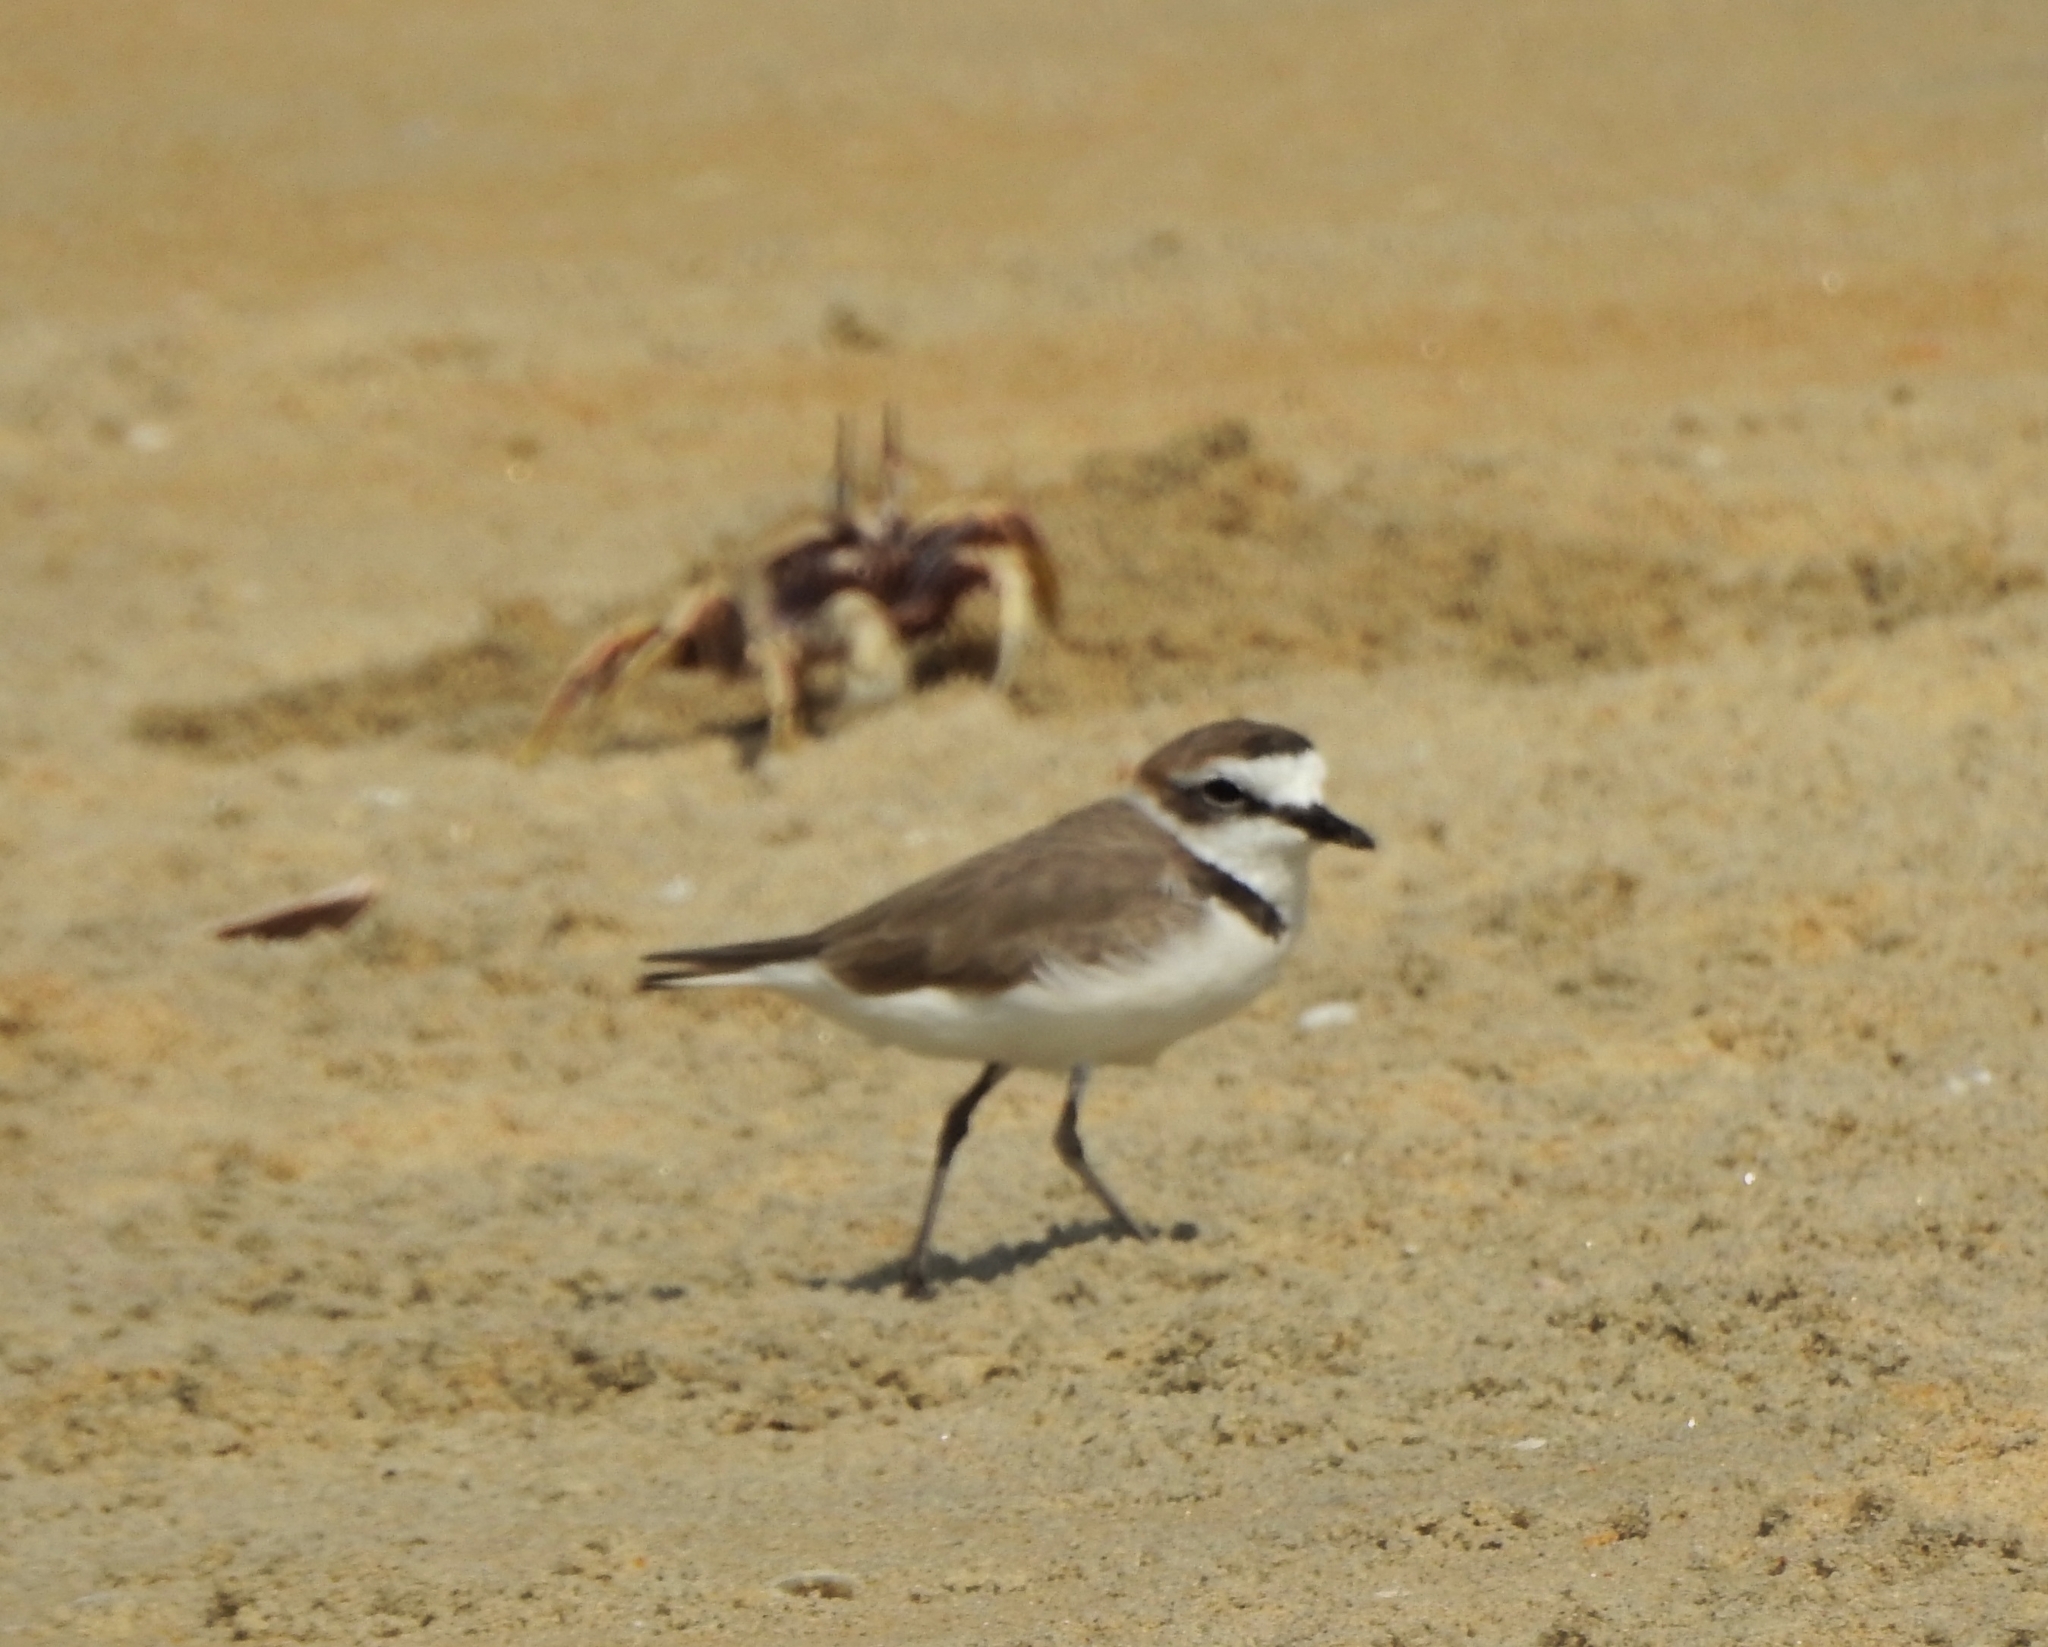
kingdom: Animalia
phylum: Chordata
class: Aves
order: Charadriiformes
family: Charadriidae
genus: Charadrius
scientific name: Charadrius alexandrinus
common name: Kentish plover
